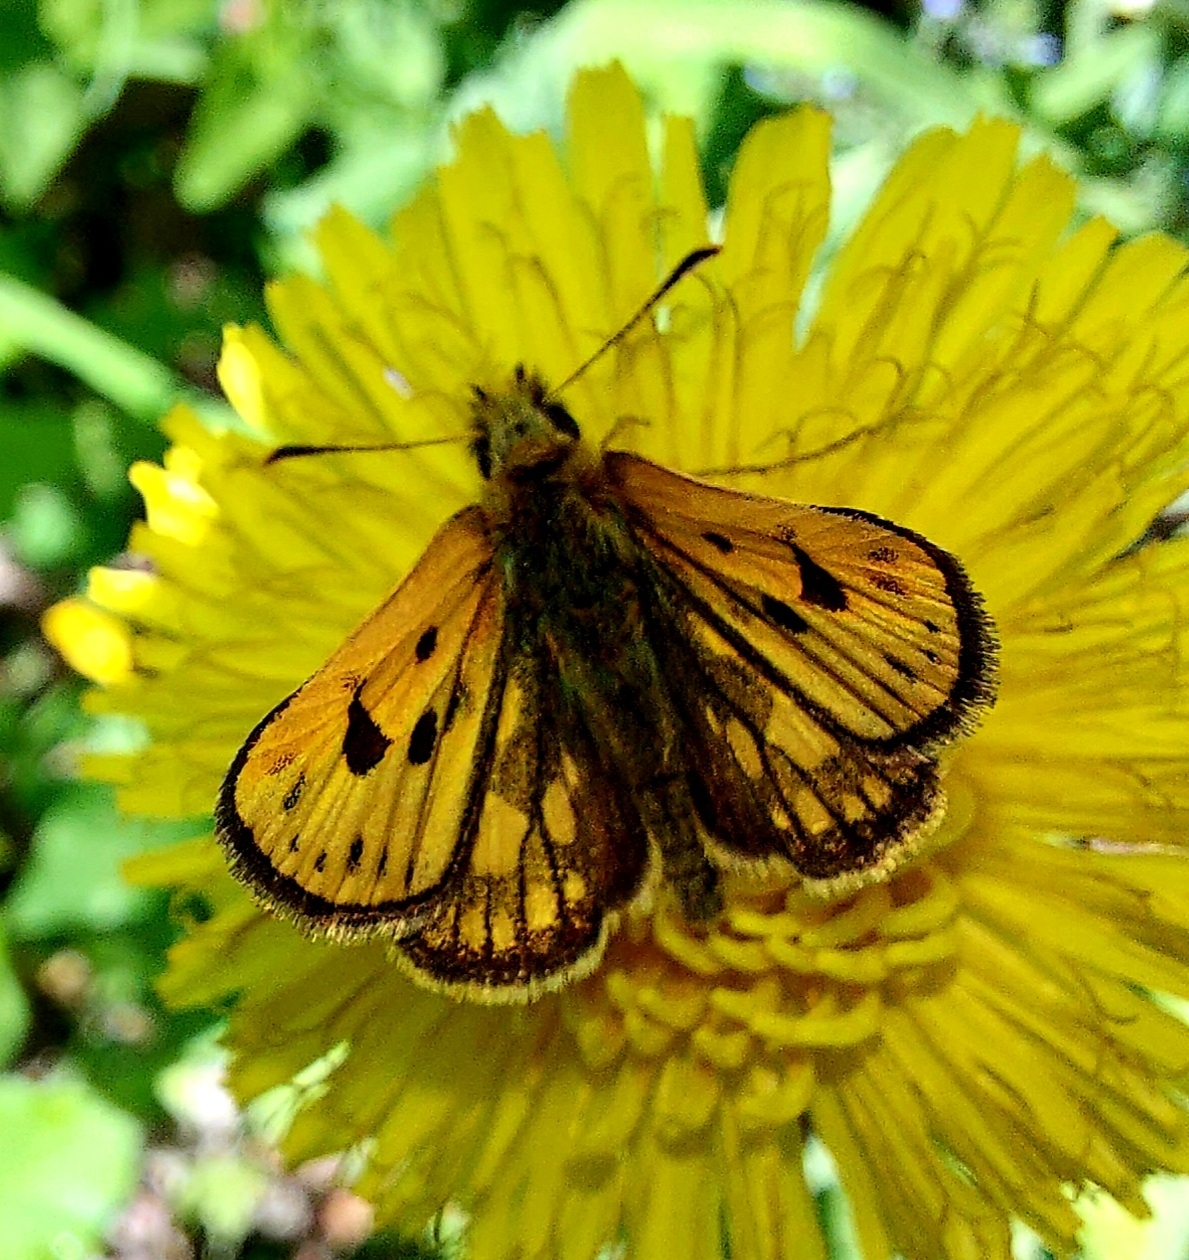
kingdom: Animalia
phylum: Arthropoda
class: Insecta
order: Lepidoptera
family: Hesperiidae
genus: Carterocephalus
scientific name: Carterocephalus silvicola
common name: Northern chequered skipper
